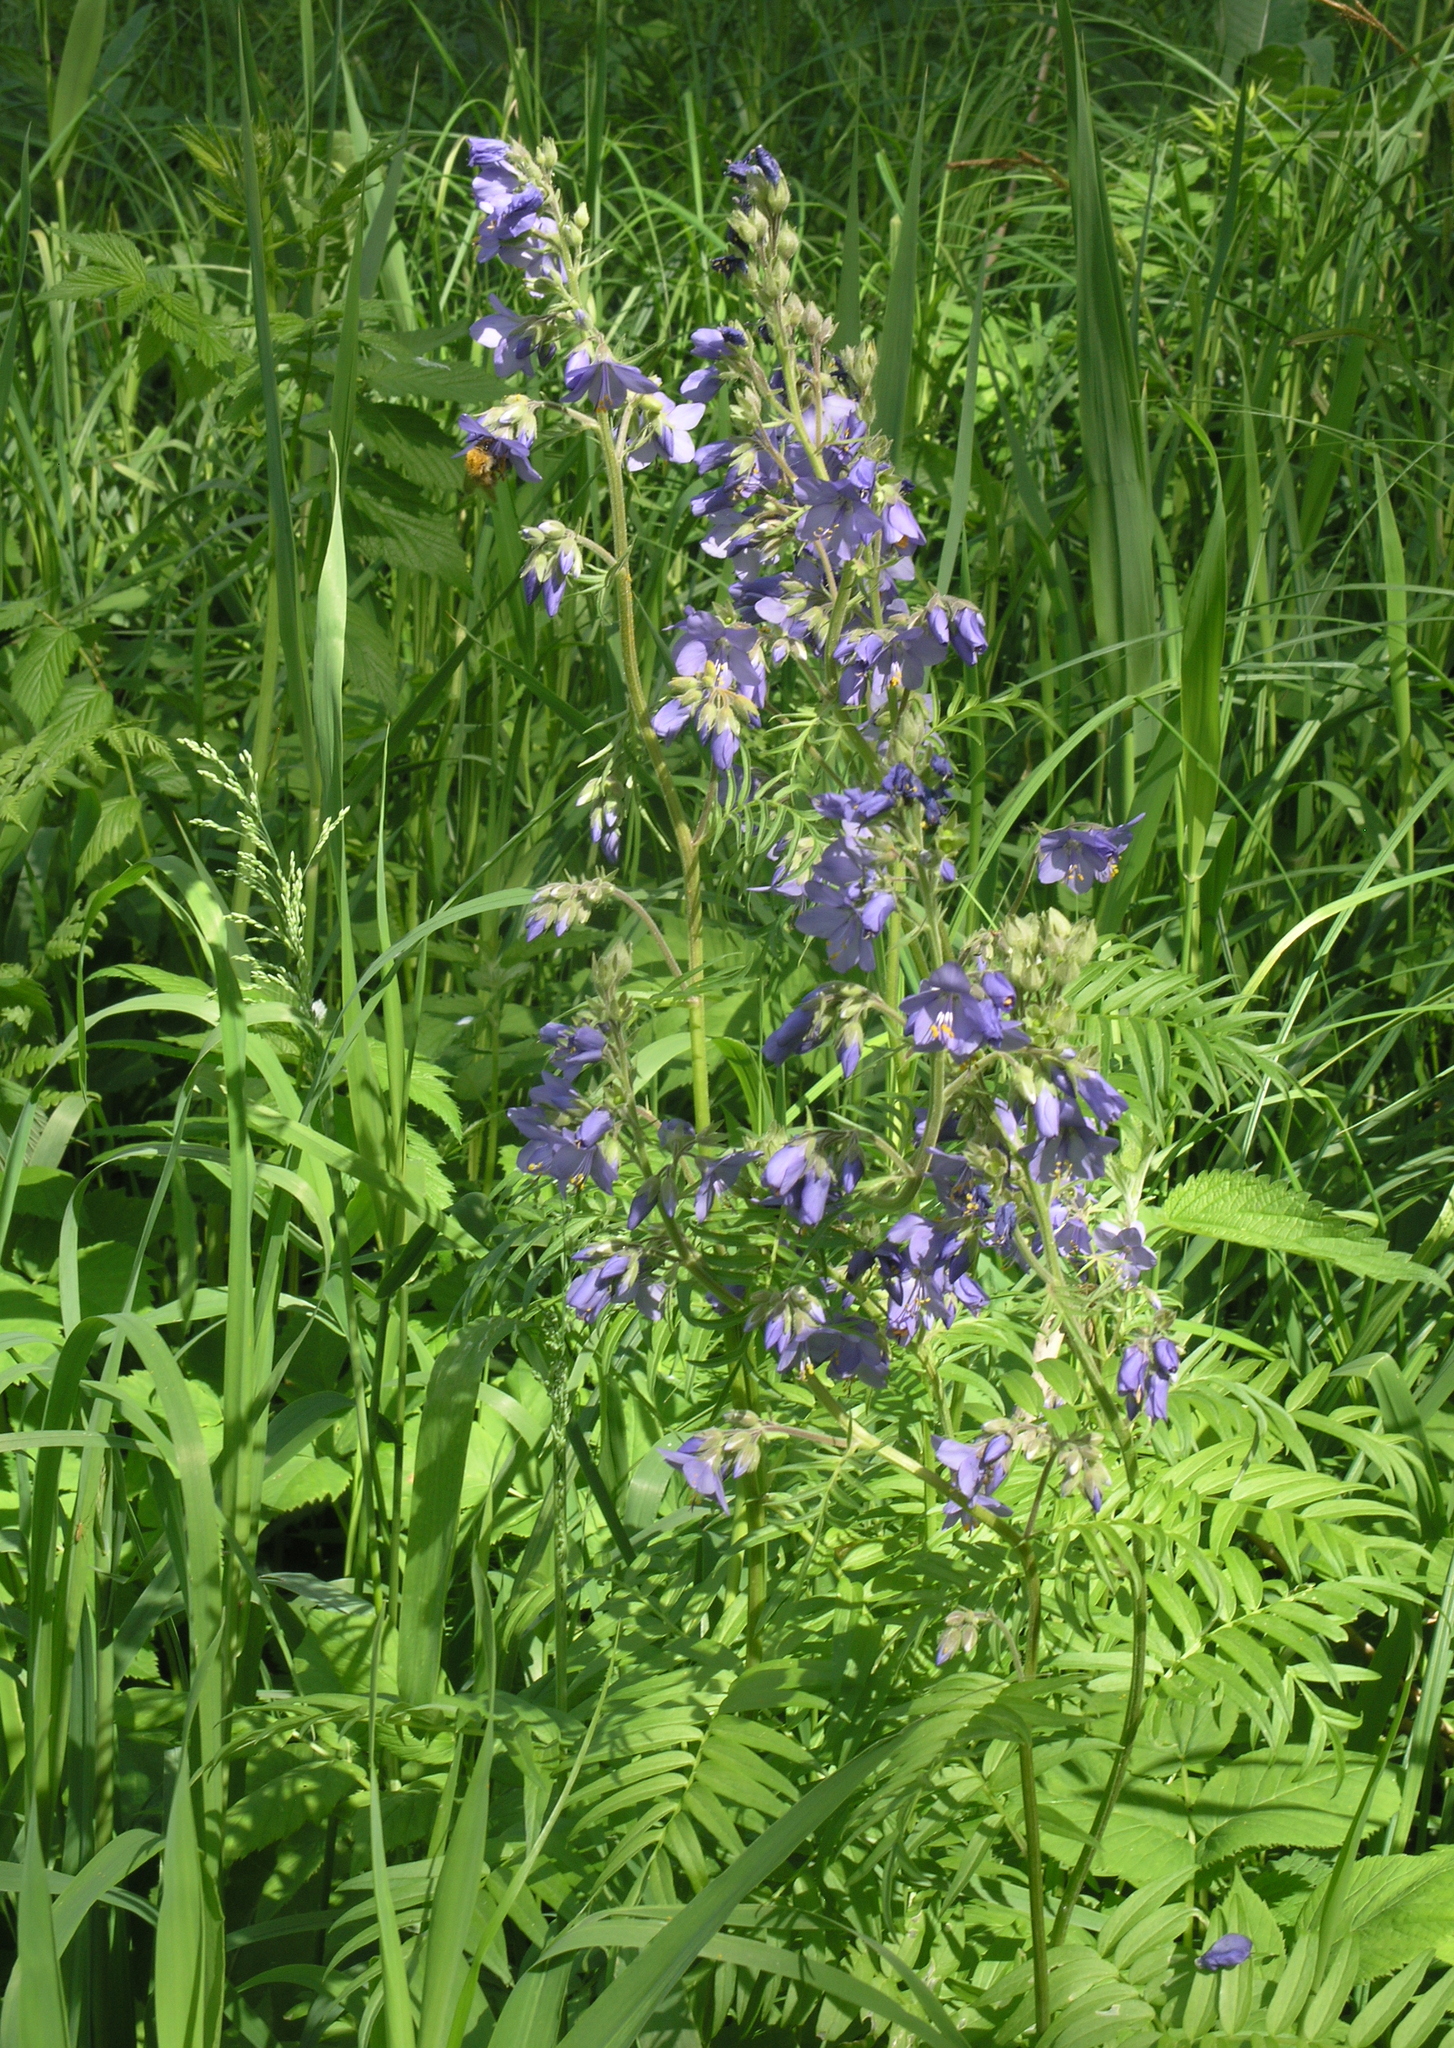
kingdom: Plantae
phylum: Tracheophyta
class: Magnoliopsida
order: Ericales
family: Polemoniaceae
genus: Polemonium
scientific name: Polemonium caeruleum
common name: Jacob's-ladder
